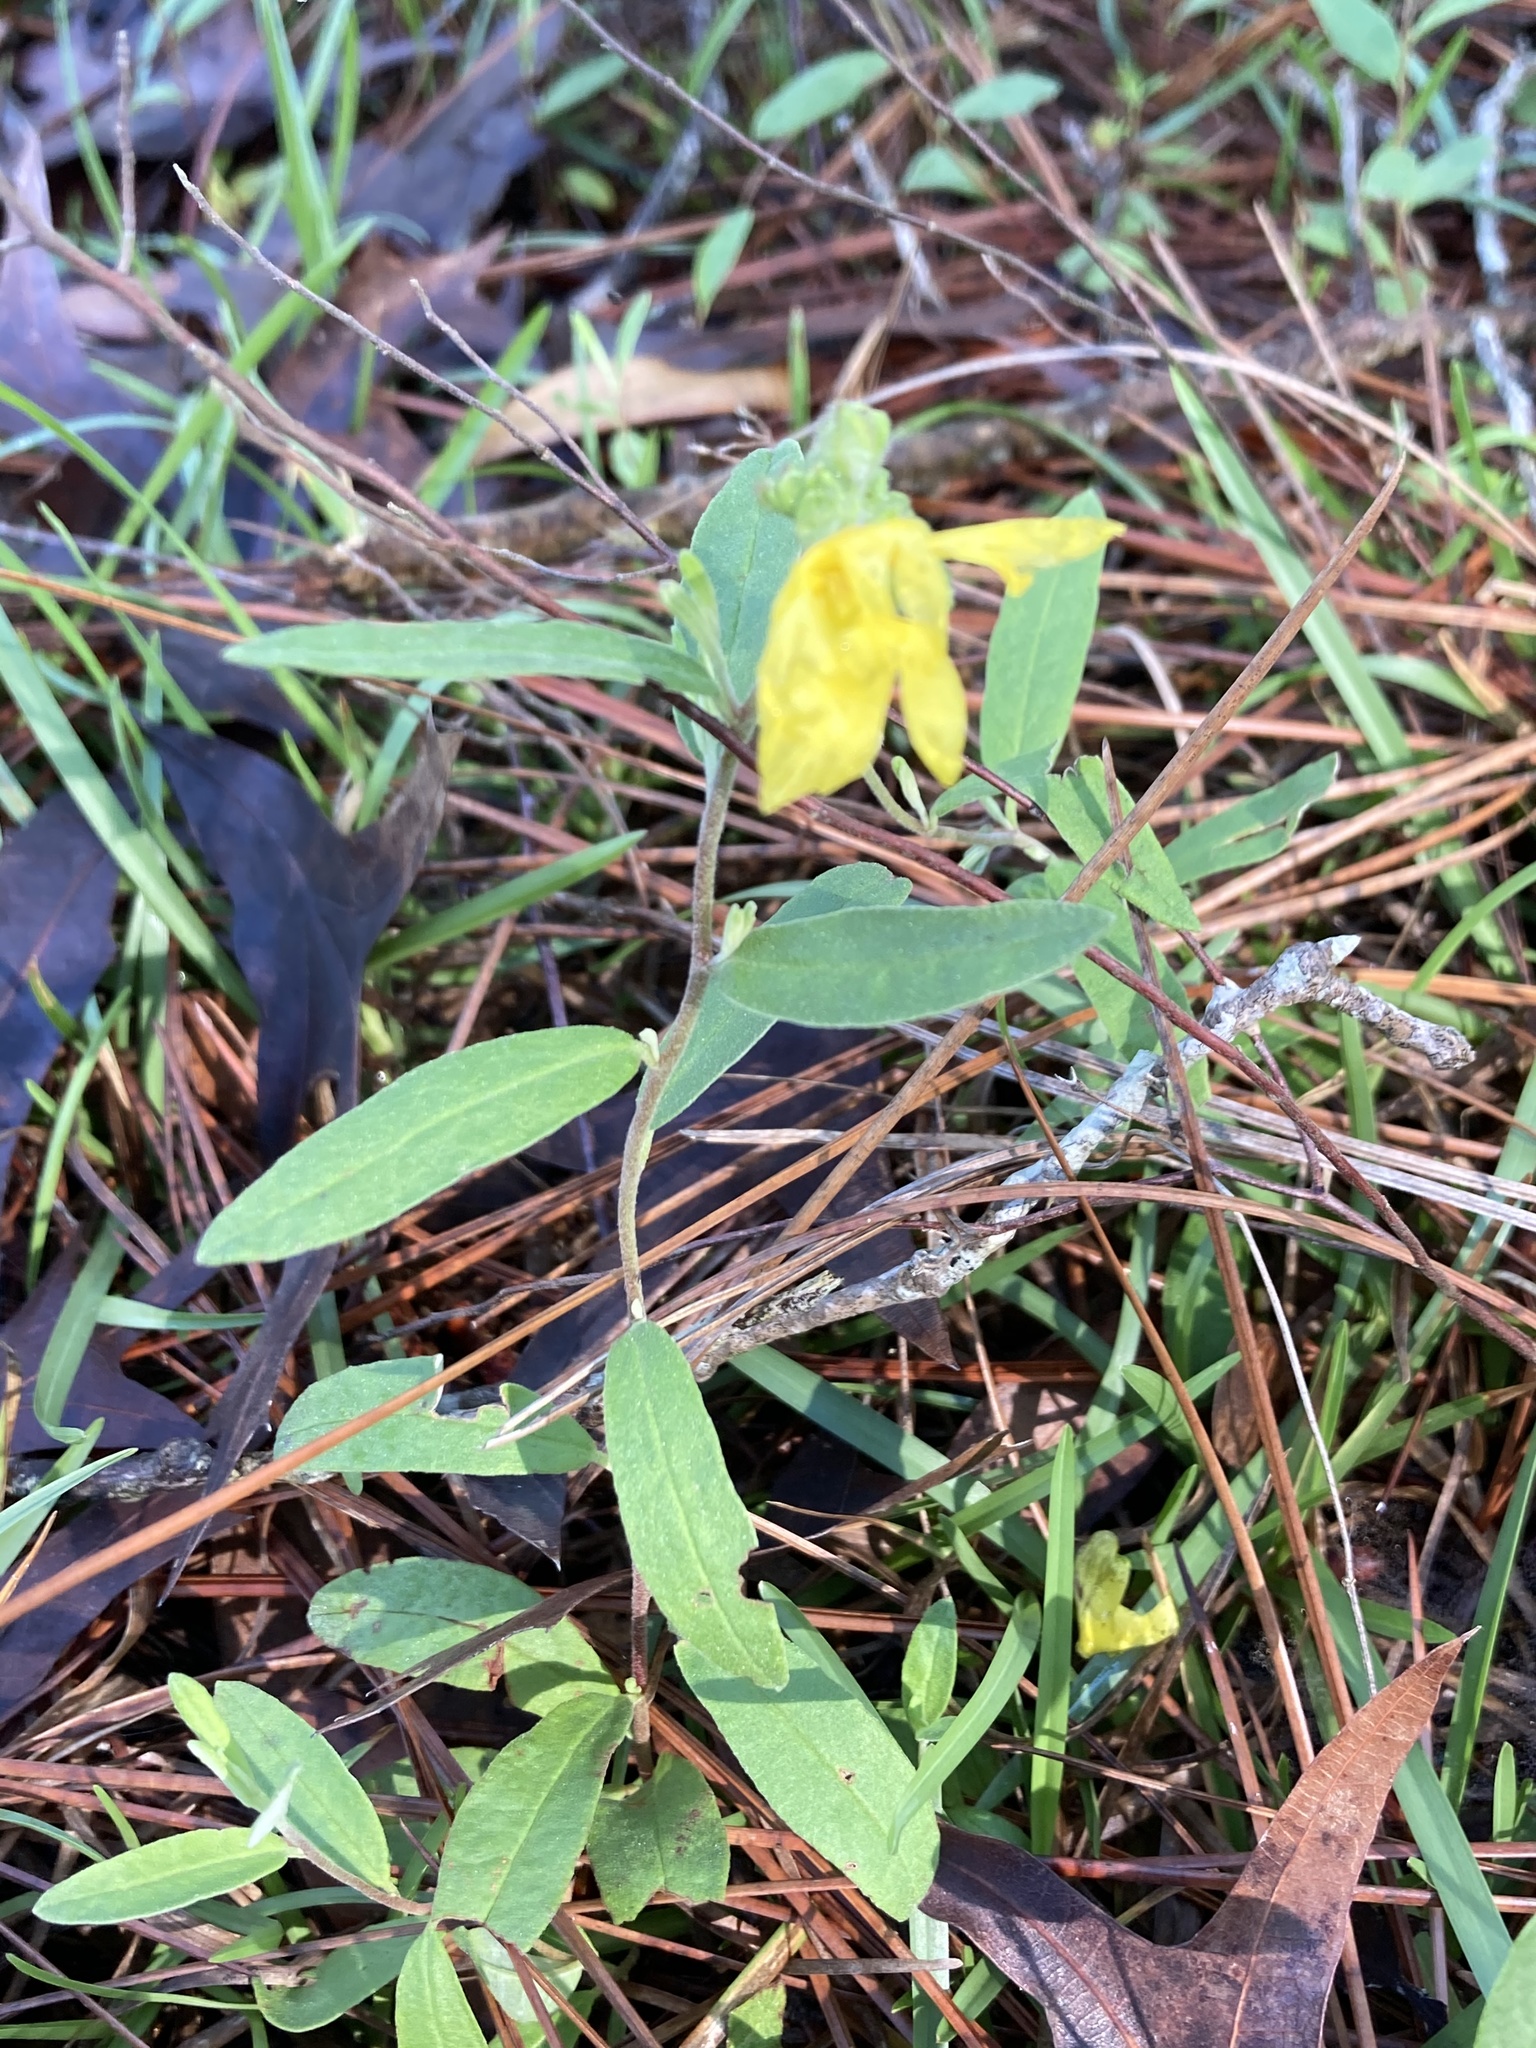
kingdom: Plantae
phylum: Tracheophyta
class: Magnoliopsida
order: Malvales
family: Cistaceae
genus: Crocanthemum
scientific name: Crocanthemum corymbosum
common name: Pinebarren sun-rose
